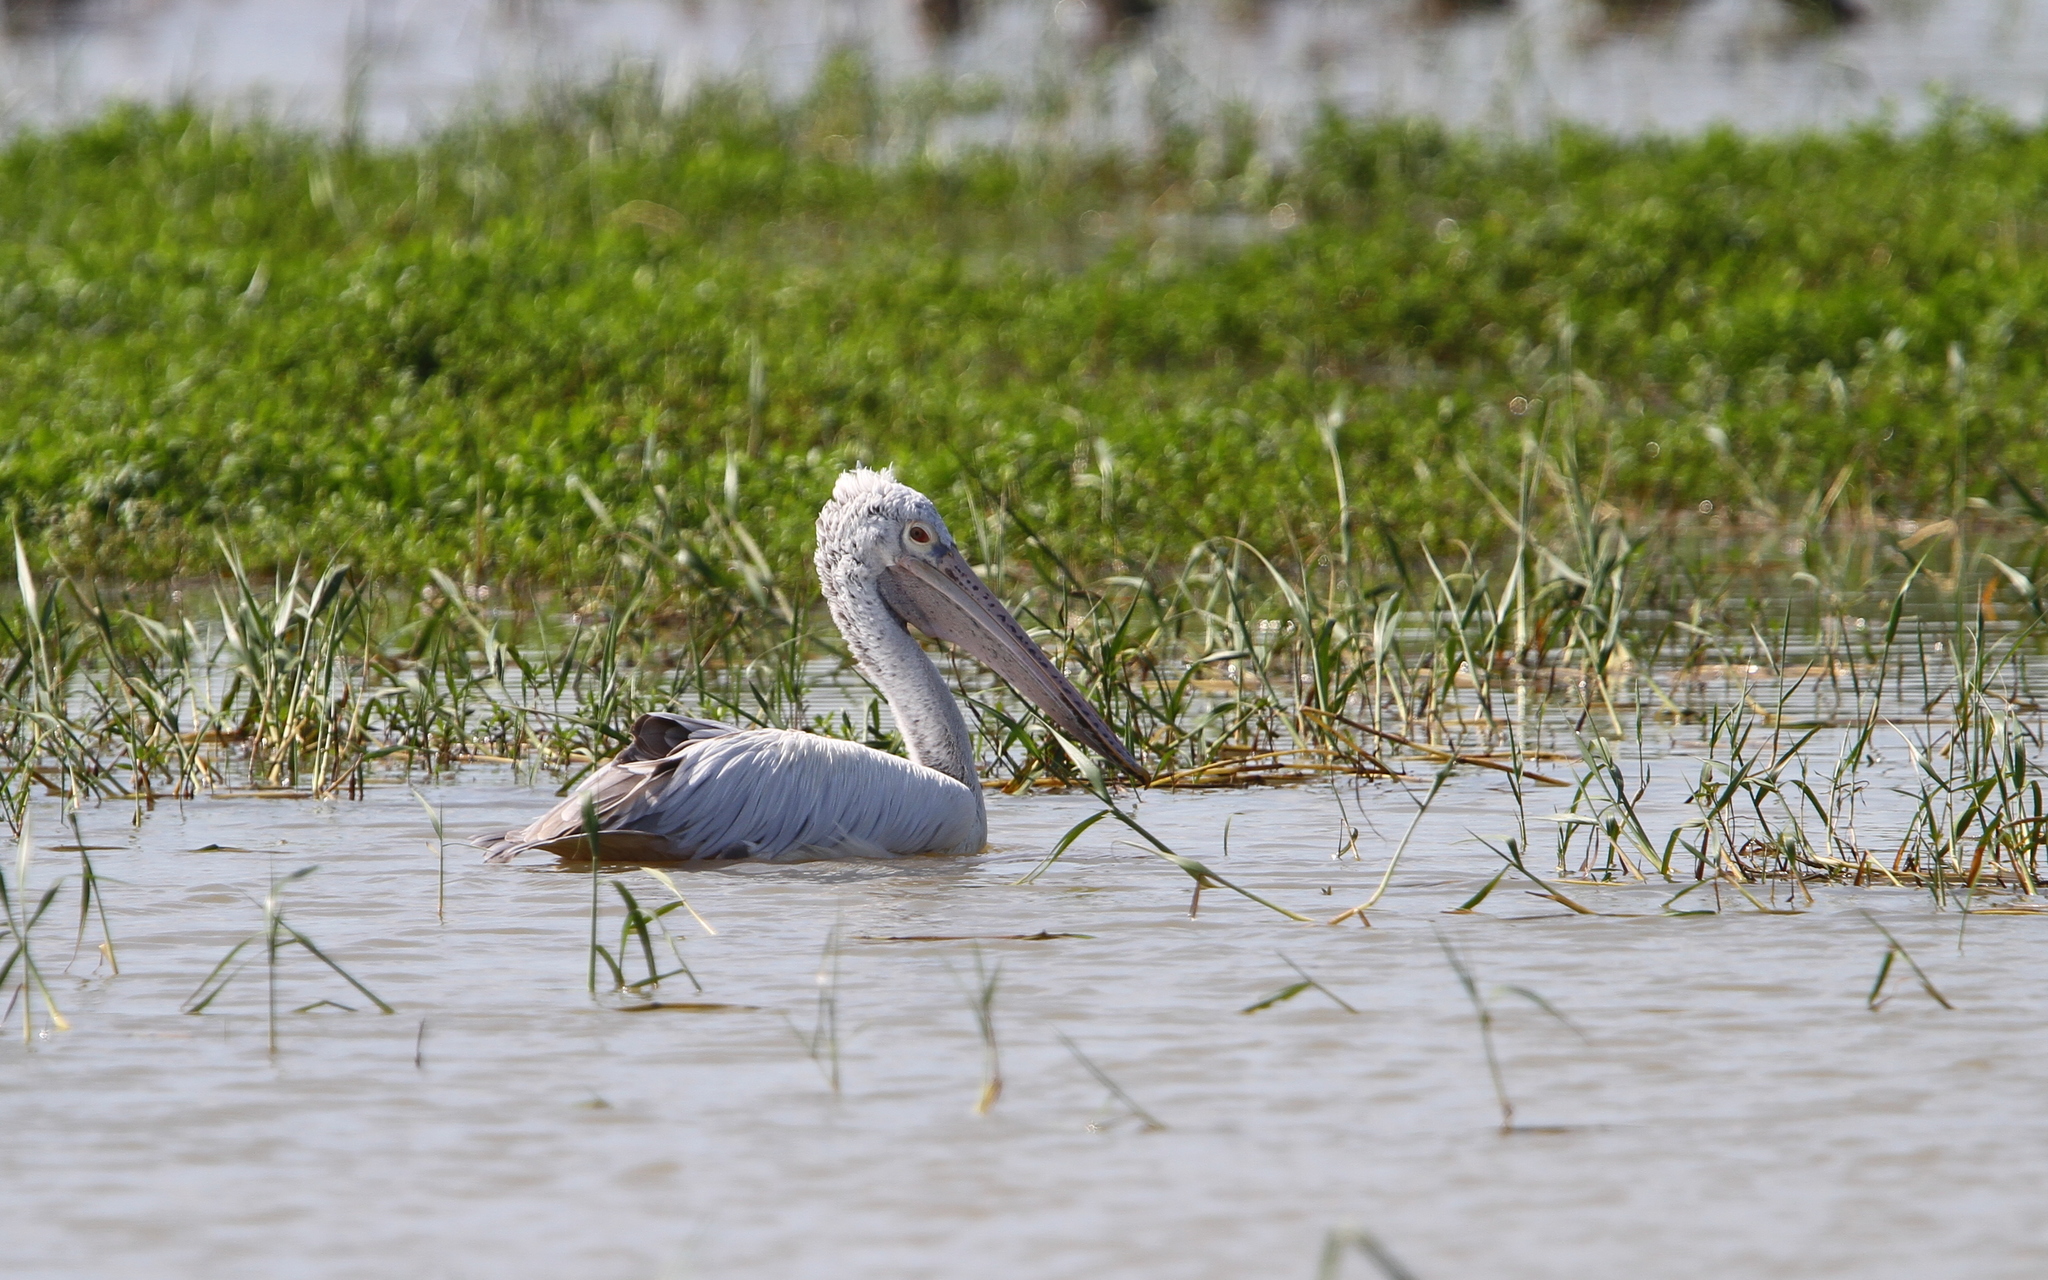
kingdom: Animalia
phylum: Chordata
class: Aves
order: Pelecaniformes
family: Pelecanidae
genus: Pelecanus
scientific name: Pelecanus philippensis
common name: Spot-billed pelican
